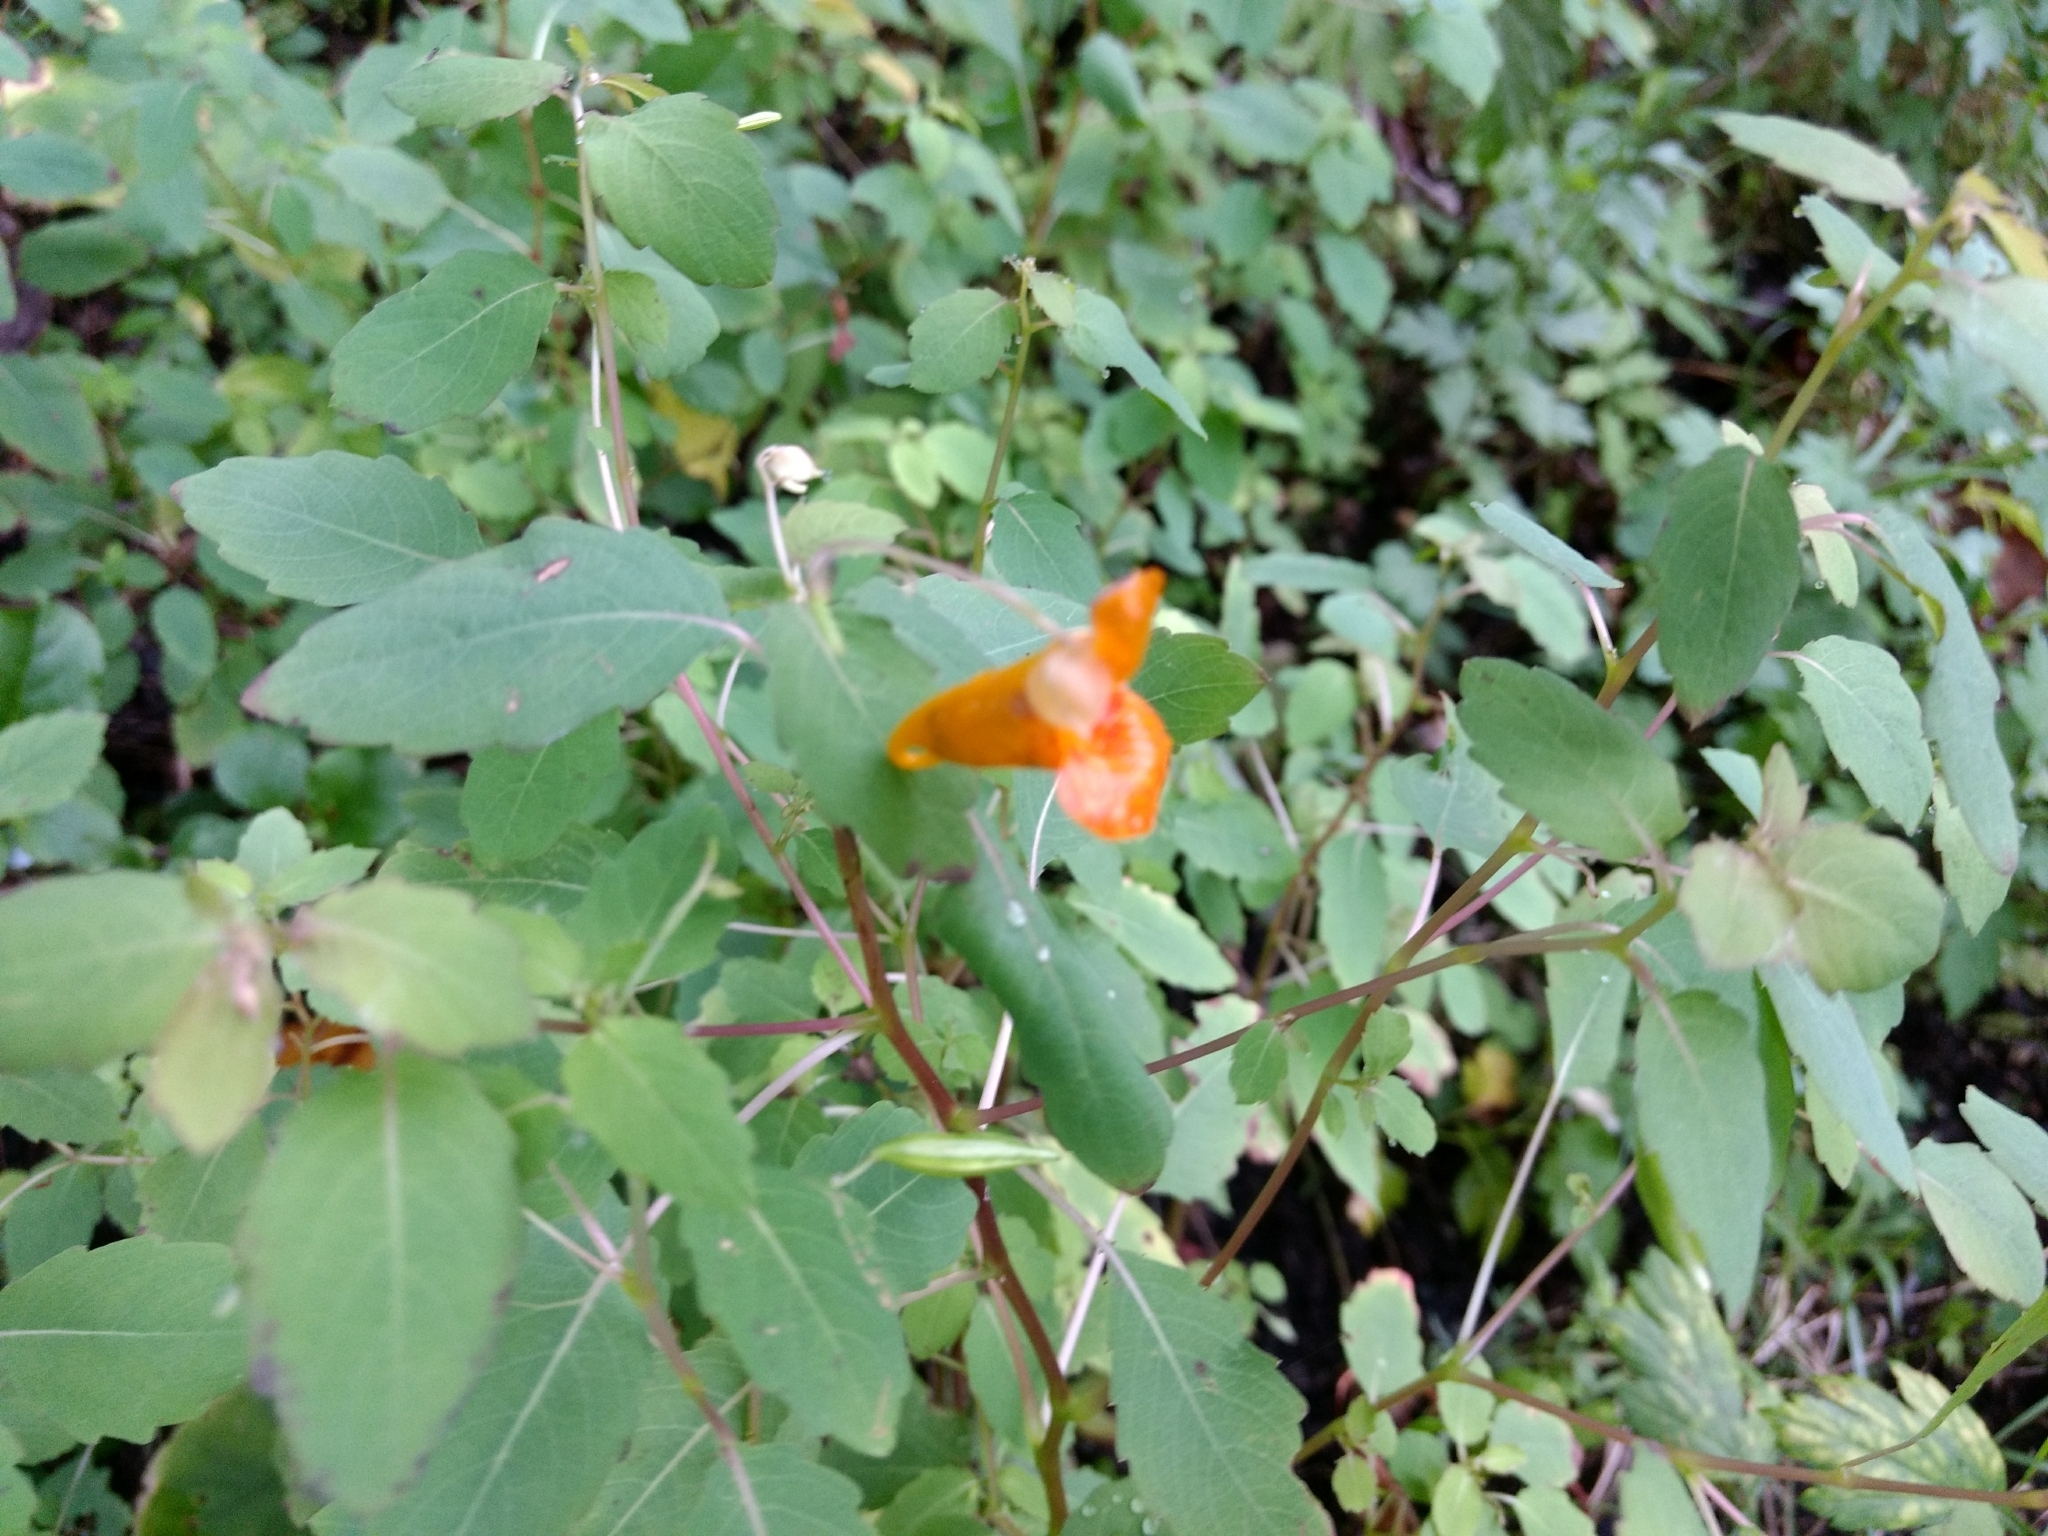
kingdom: Plantae
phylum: Tracheophyta
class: Magnoliopsida
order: Ericales
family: Balsaminaceae
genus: Impatiens
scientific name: Impatiens capensis
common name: Orange balsam
